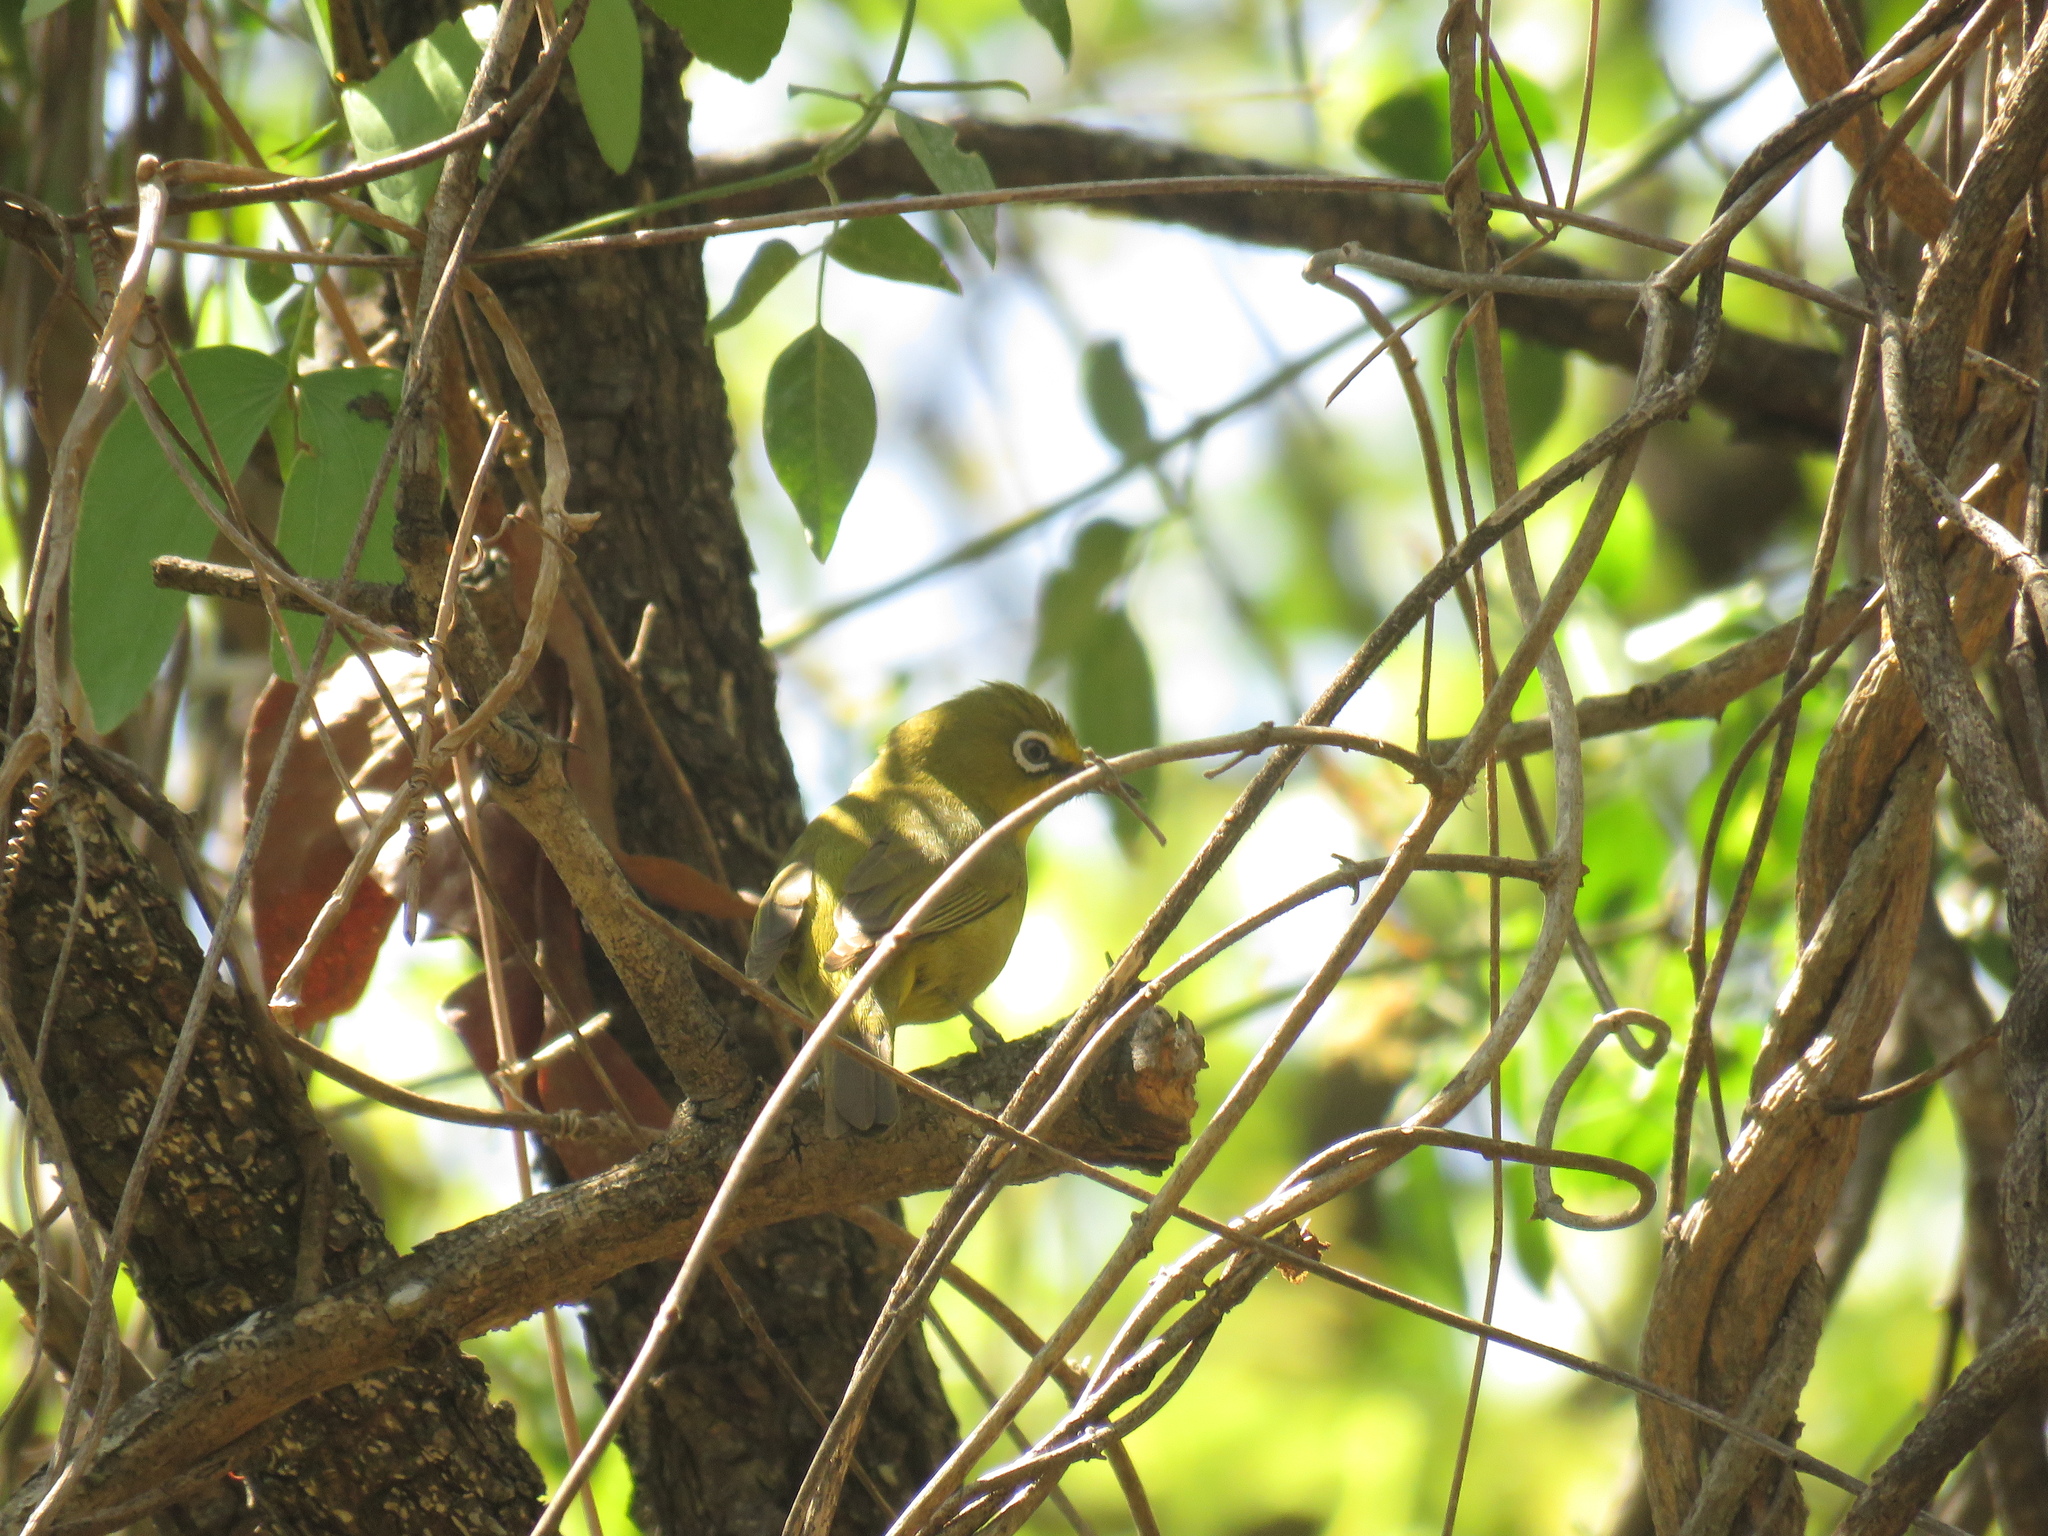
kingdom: Animalia
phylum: Chordata
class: Aves
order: Passeriformes
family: Zosteropidae
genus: Zosterops
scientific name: Zosterops virens
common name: Cape white-eye
